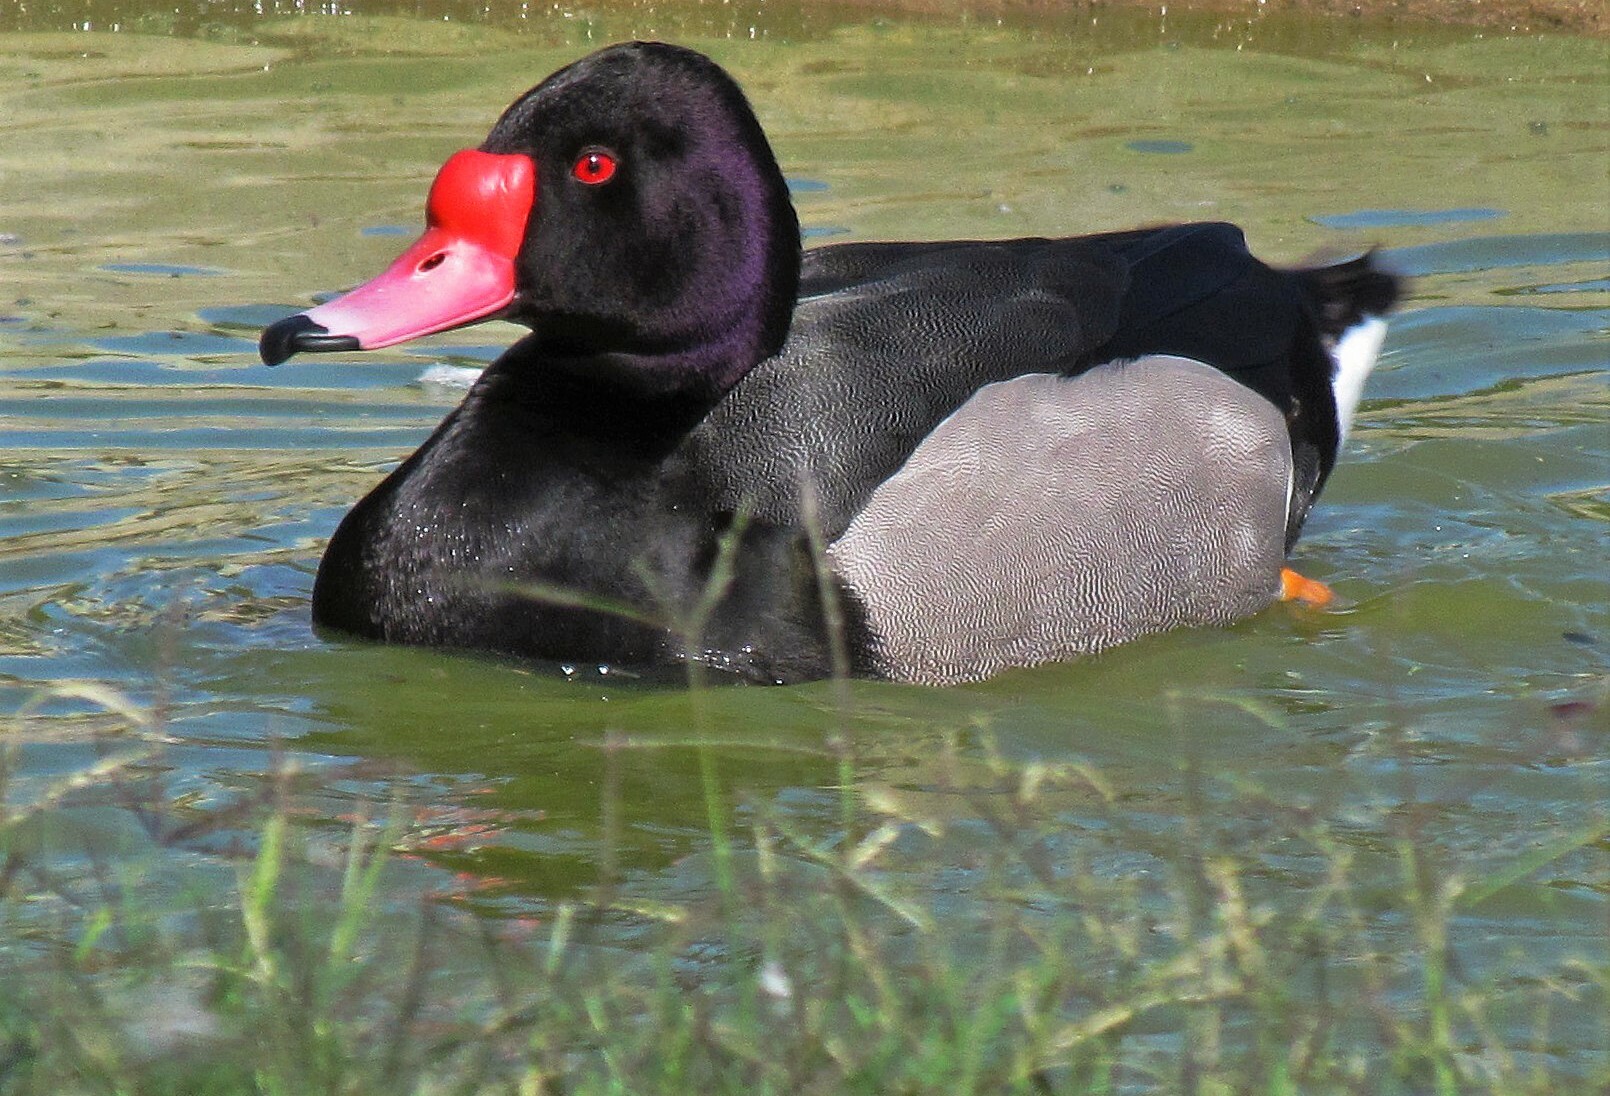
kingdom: Animalia
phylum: Chordata
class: Aves
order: Anseriformes
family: Anatidae
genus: Netta
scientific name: Netta peposaca
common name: Rosy-billed pochard
